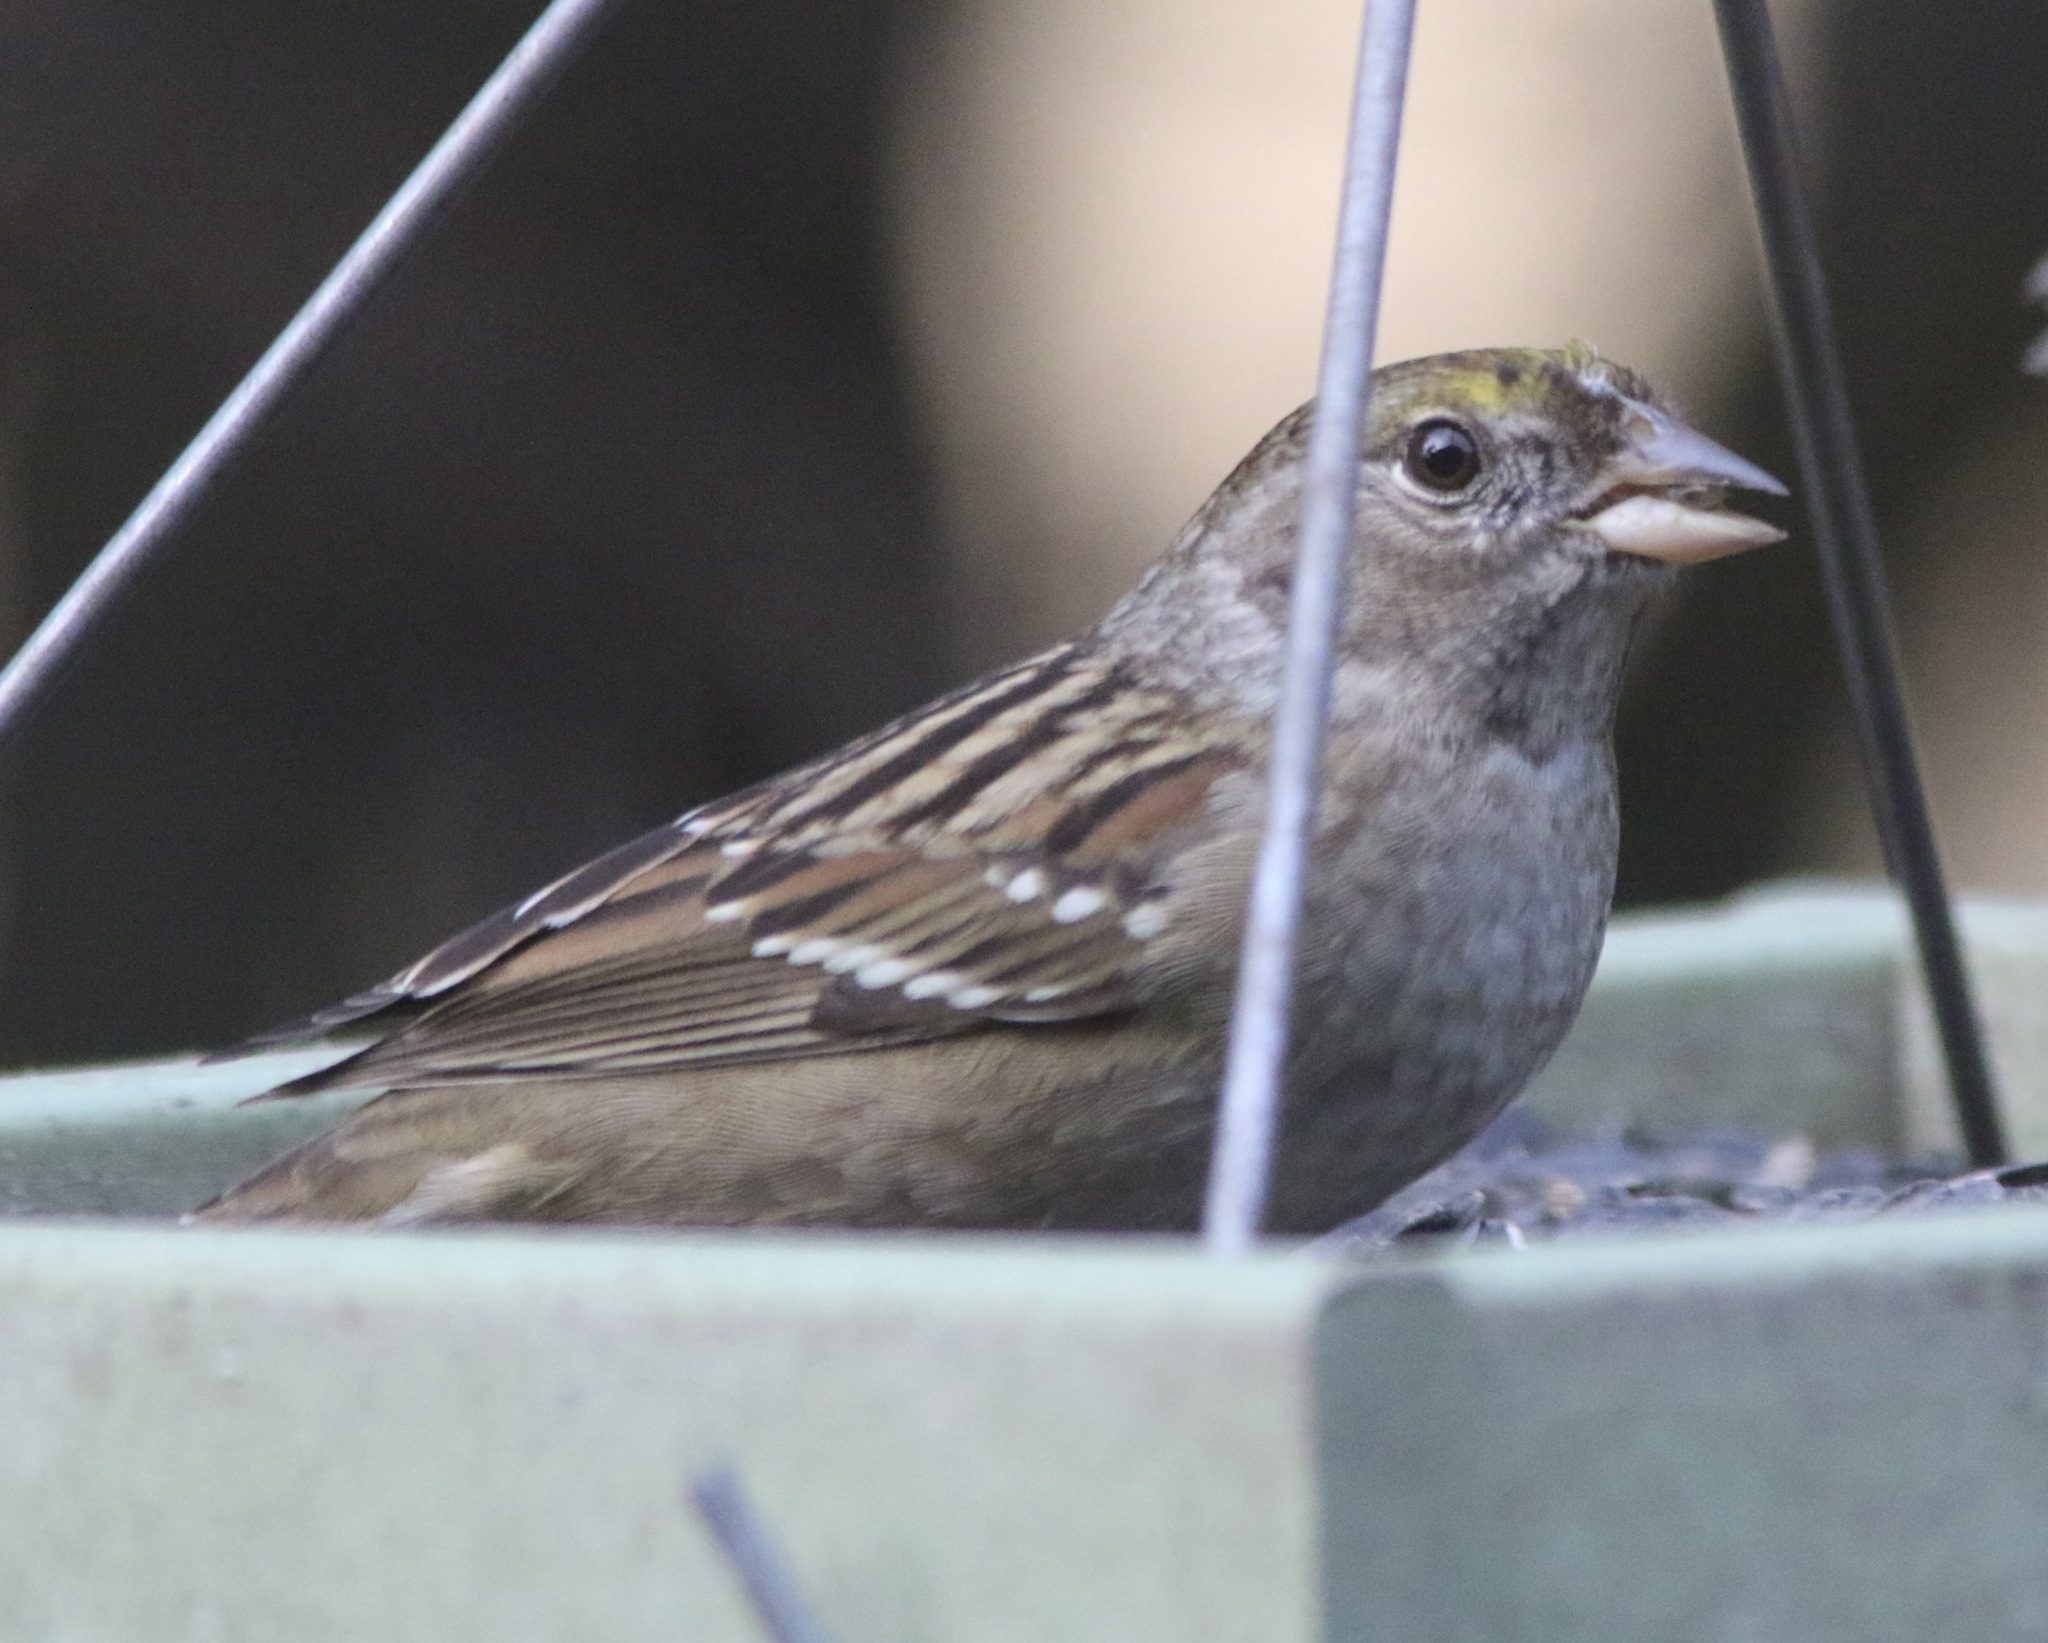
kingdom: Animalia
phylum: Chordata
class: Aves
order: Passeriformes
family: Passerellidae
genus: Zonotrichia
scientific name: Zonotrichia atricapilla
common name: Golden-crowned sparrow
